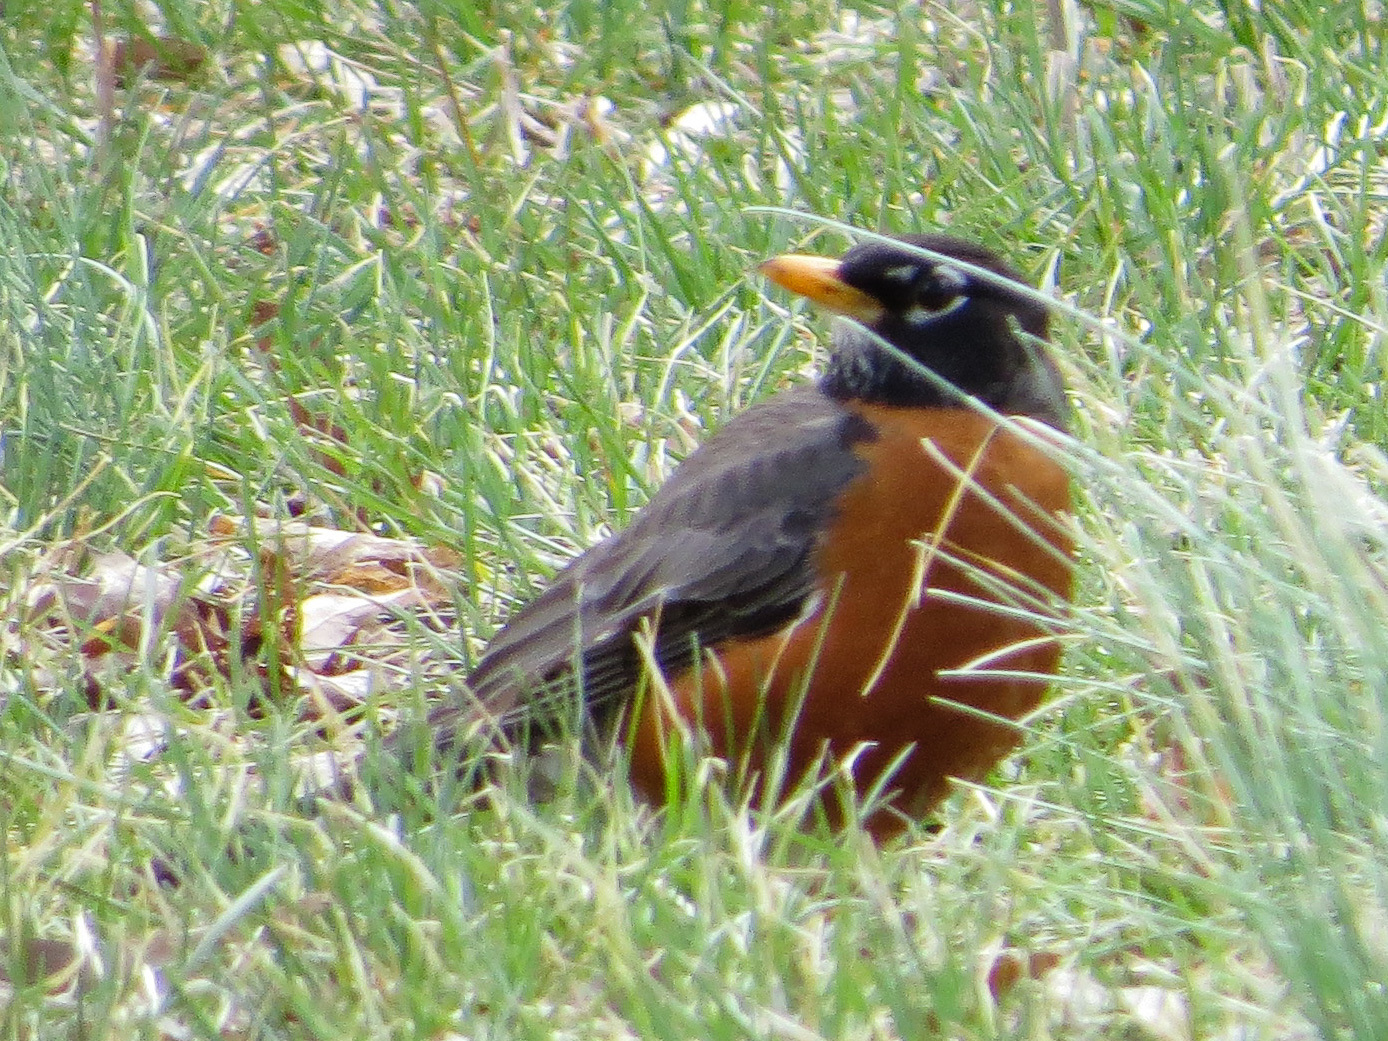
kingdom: Animalia
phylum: Chordata
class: Aves
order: Passeriformes
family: Turdidae
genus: Turdus
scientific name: Turdus migratorius
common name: American robin
